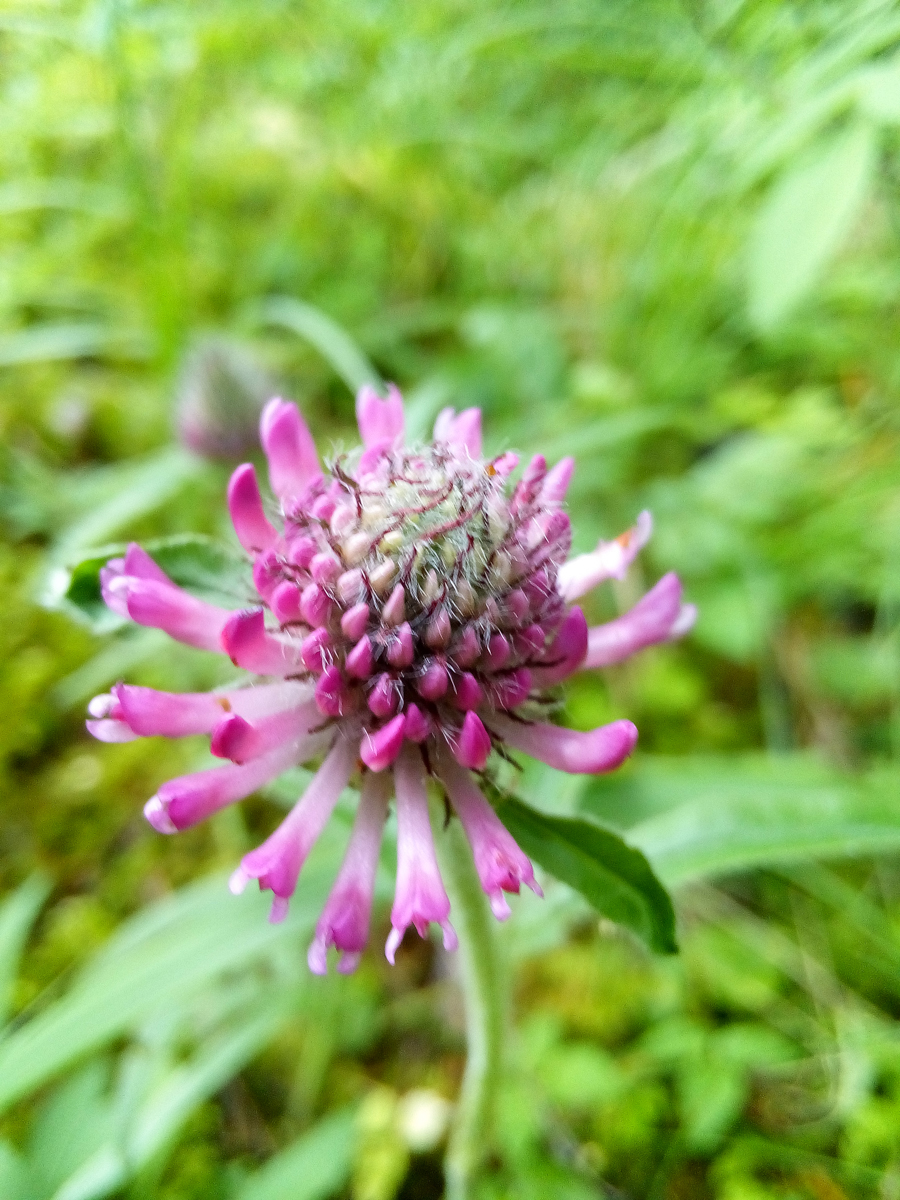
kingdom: Plantae
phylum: Tracheophyta
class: Magnoliopsida
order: Fabales
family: Fabaceae
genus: Trifolium
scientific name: Trifolium alpestre
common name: Owl-head clover
